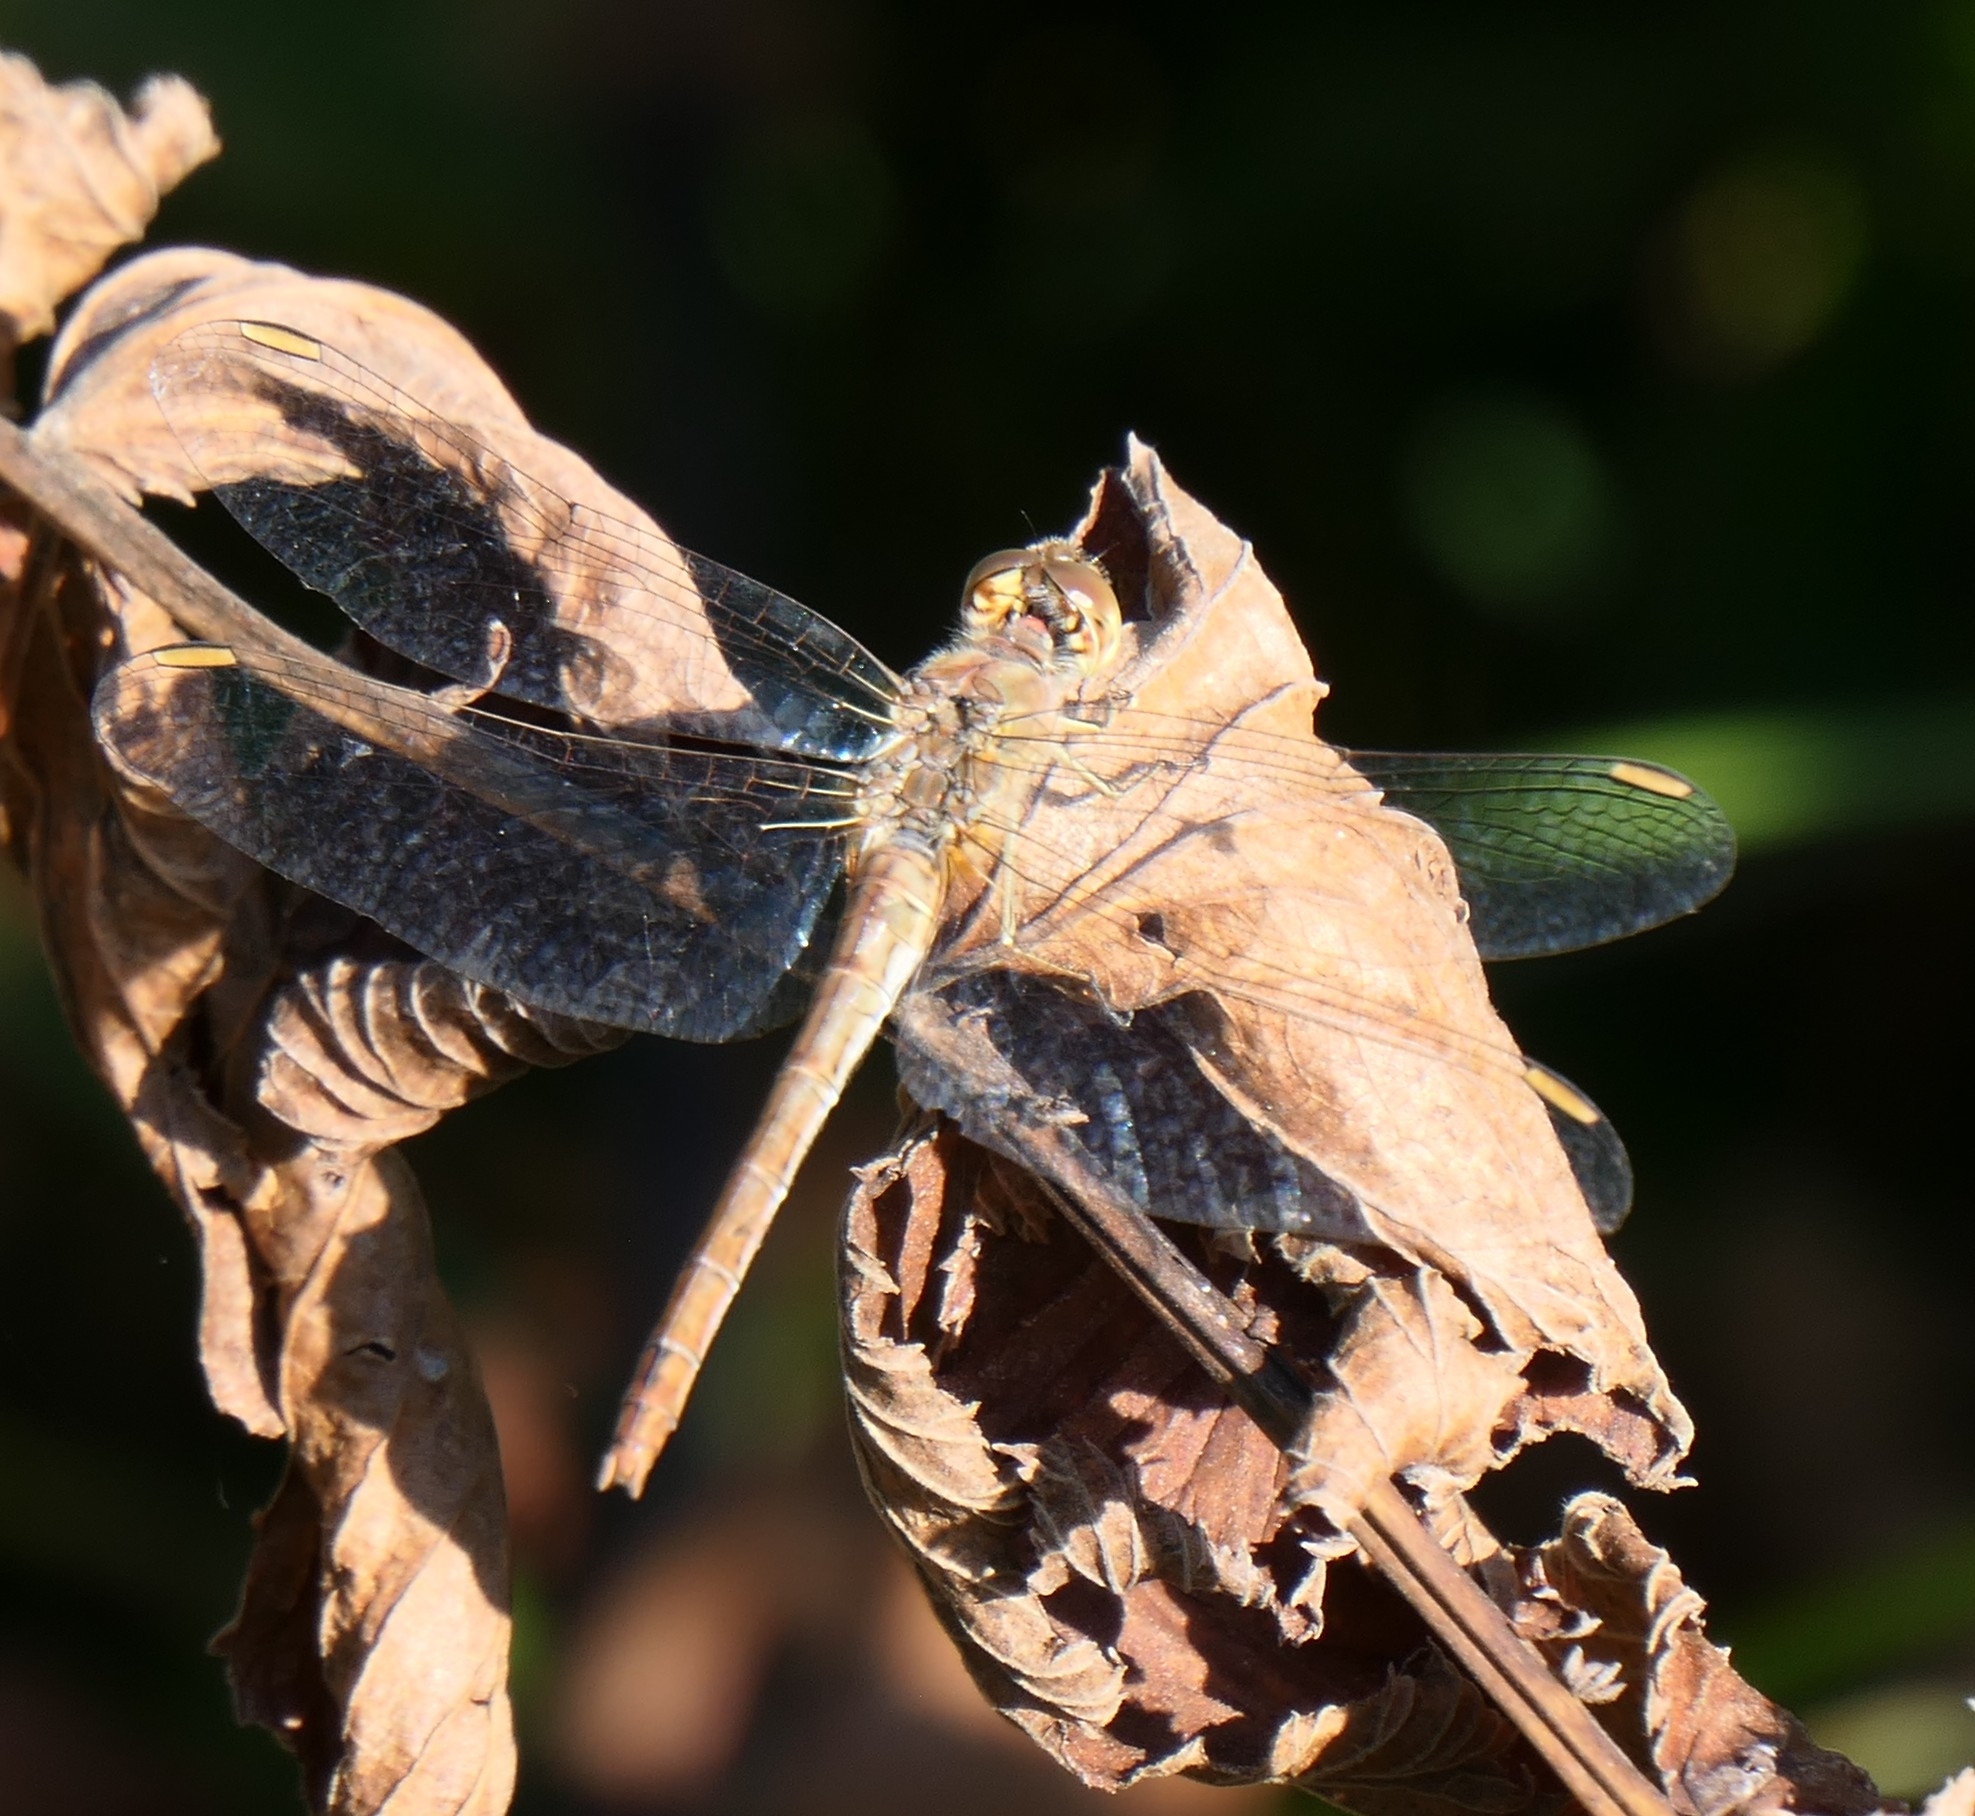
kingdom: Animalia
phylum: Arthropoda
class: Insecta
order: Odonata
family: Libellulidae
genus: Sympetrum
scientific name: Sympetrum meridionale
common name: Southern darter
